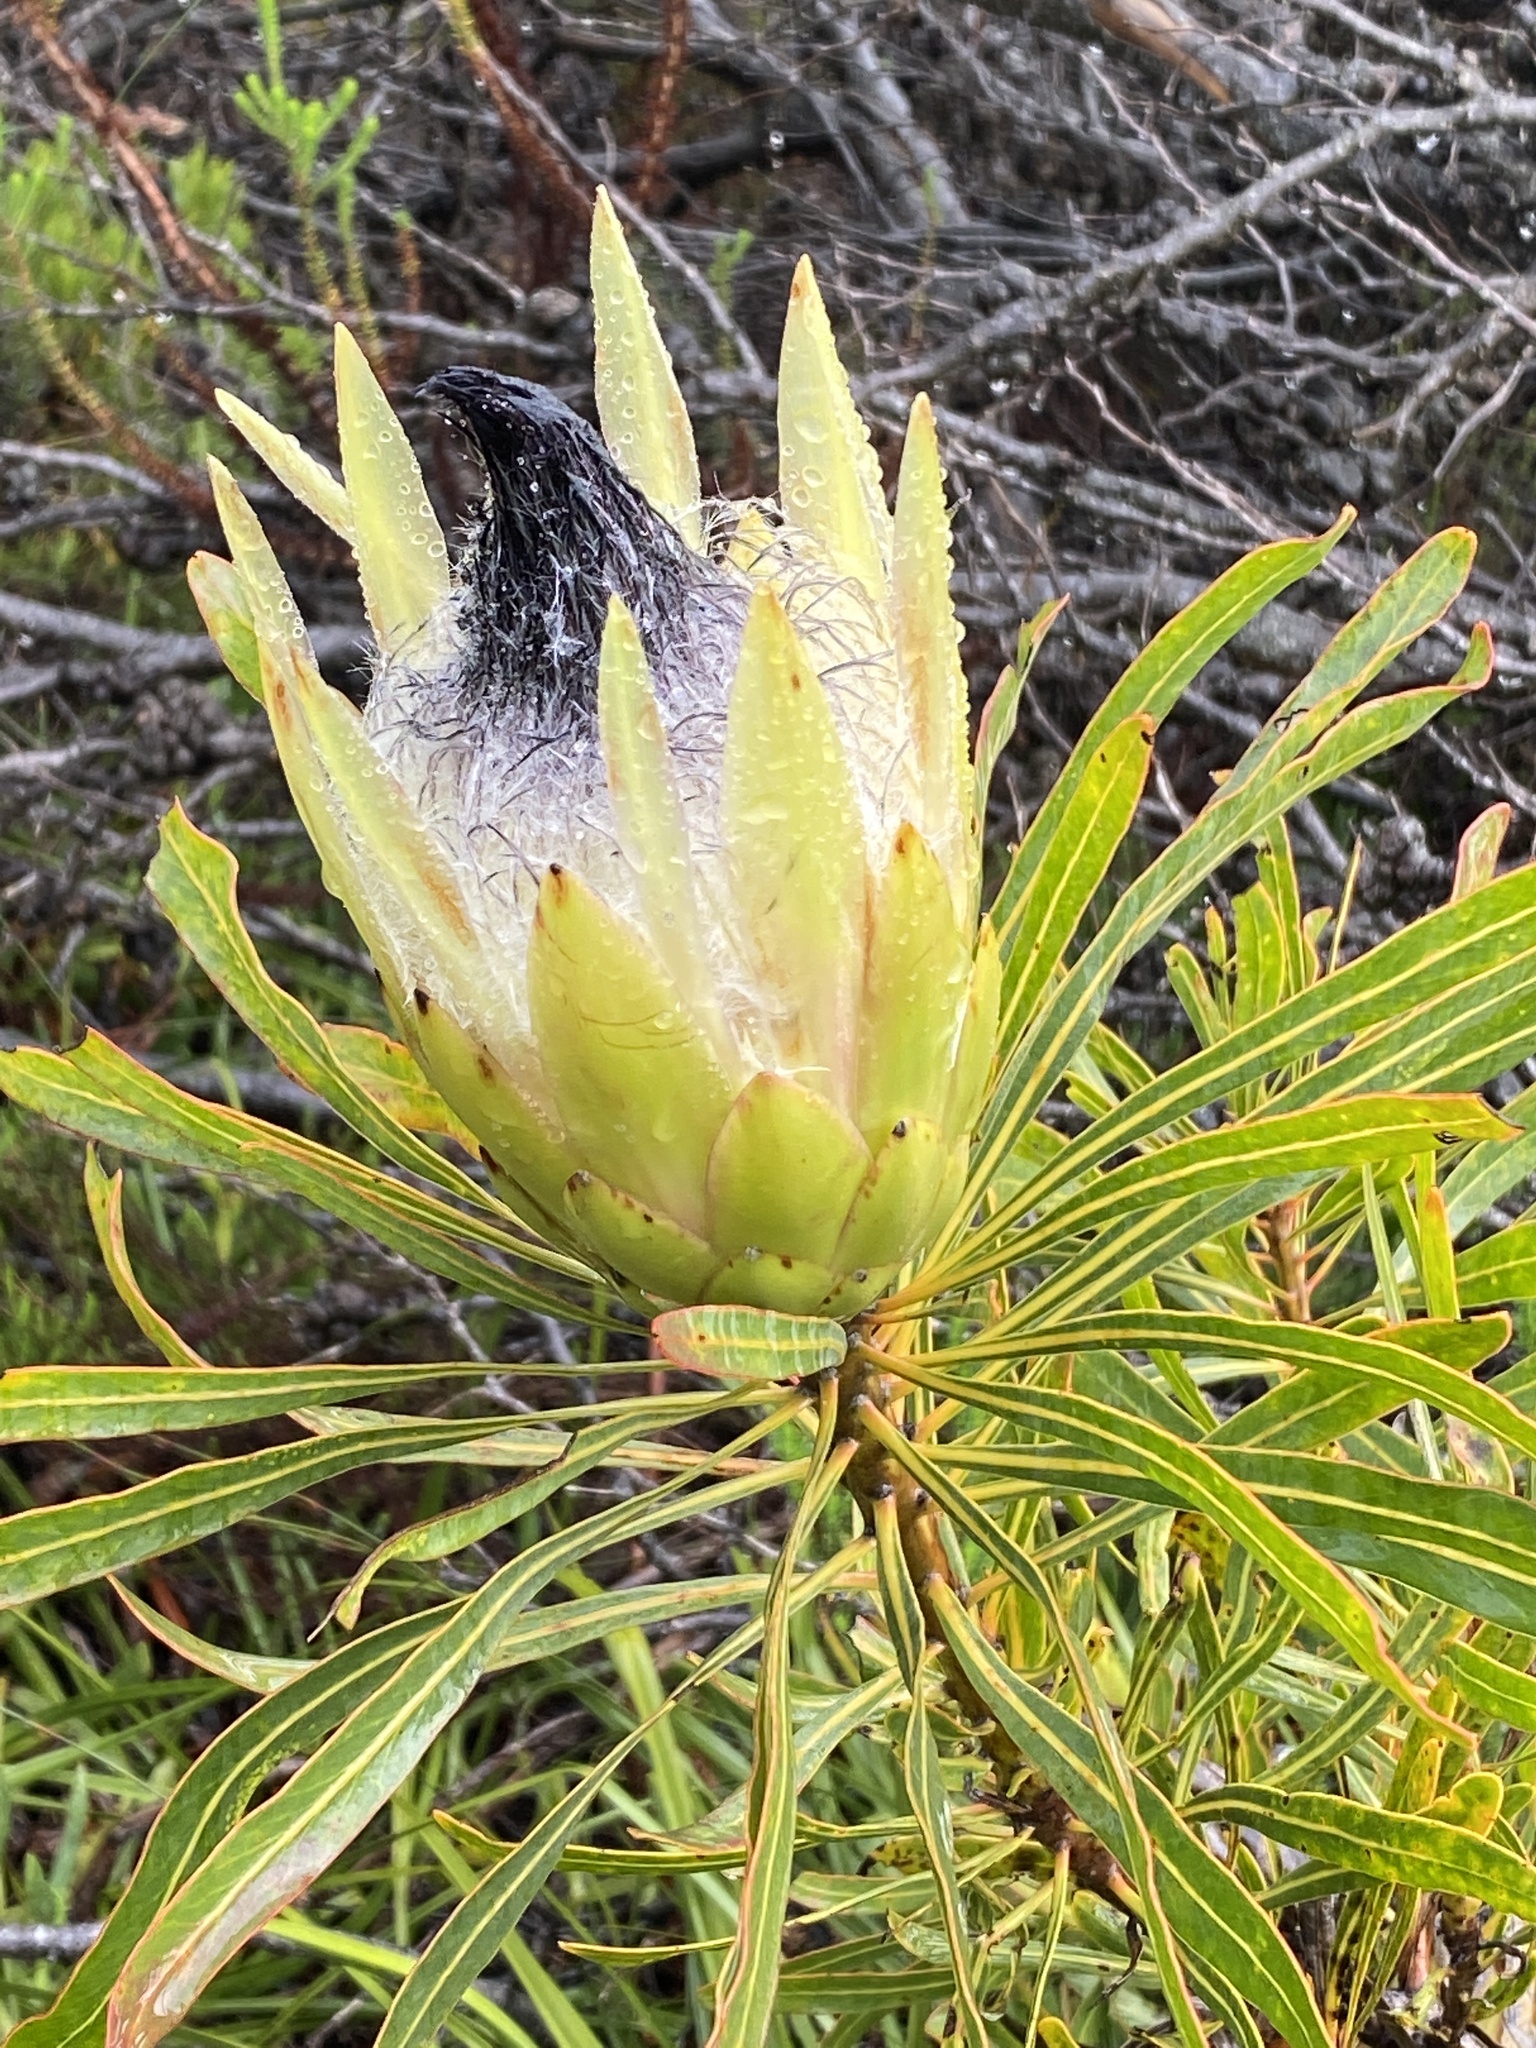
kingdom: Plantae
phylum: Tracheophyta
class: Magnoliopsida
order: Proteales
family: Proteaceae
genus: Protea
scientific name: Protea longifolia
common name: Long-leaf sugarbush
